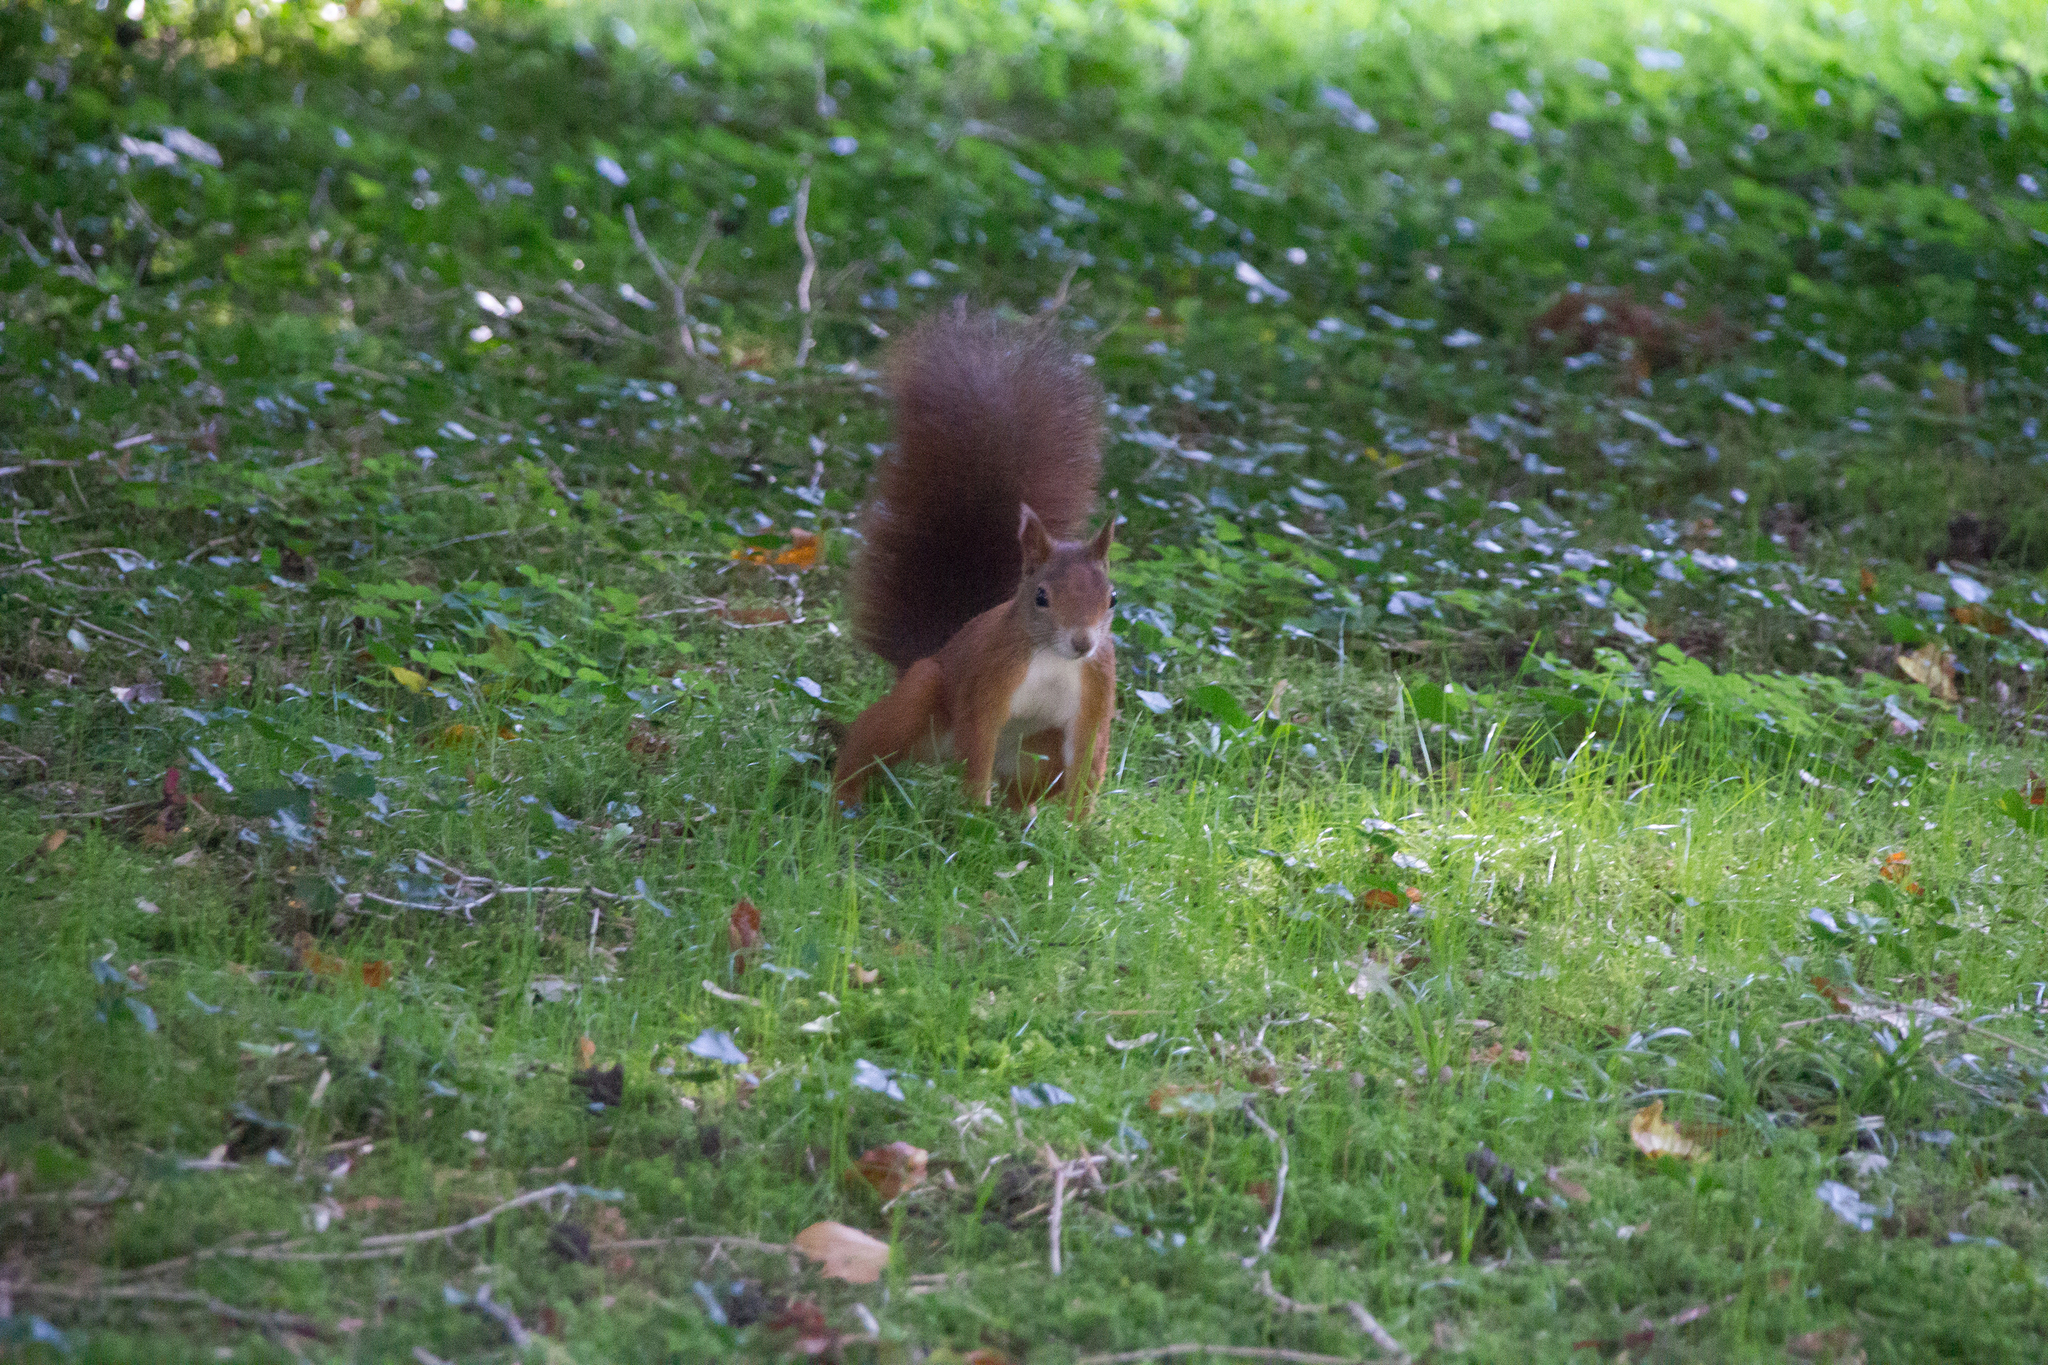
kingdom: Animalia
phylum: Chordata
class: Mammalia
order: Rodentia
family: Sciuridae
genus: Sciurus
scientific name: Sciurus vulgaris
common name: Eurasian red squirrel
